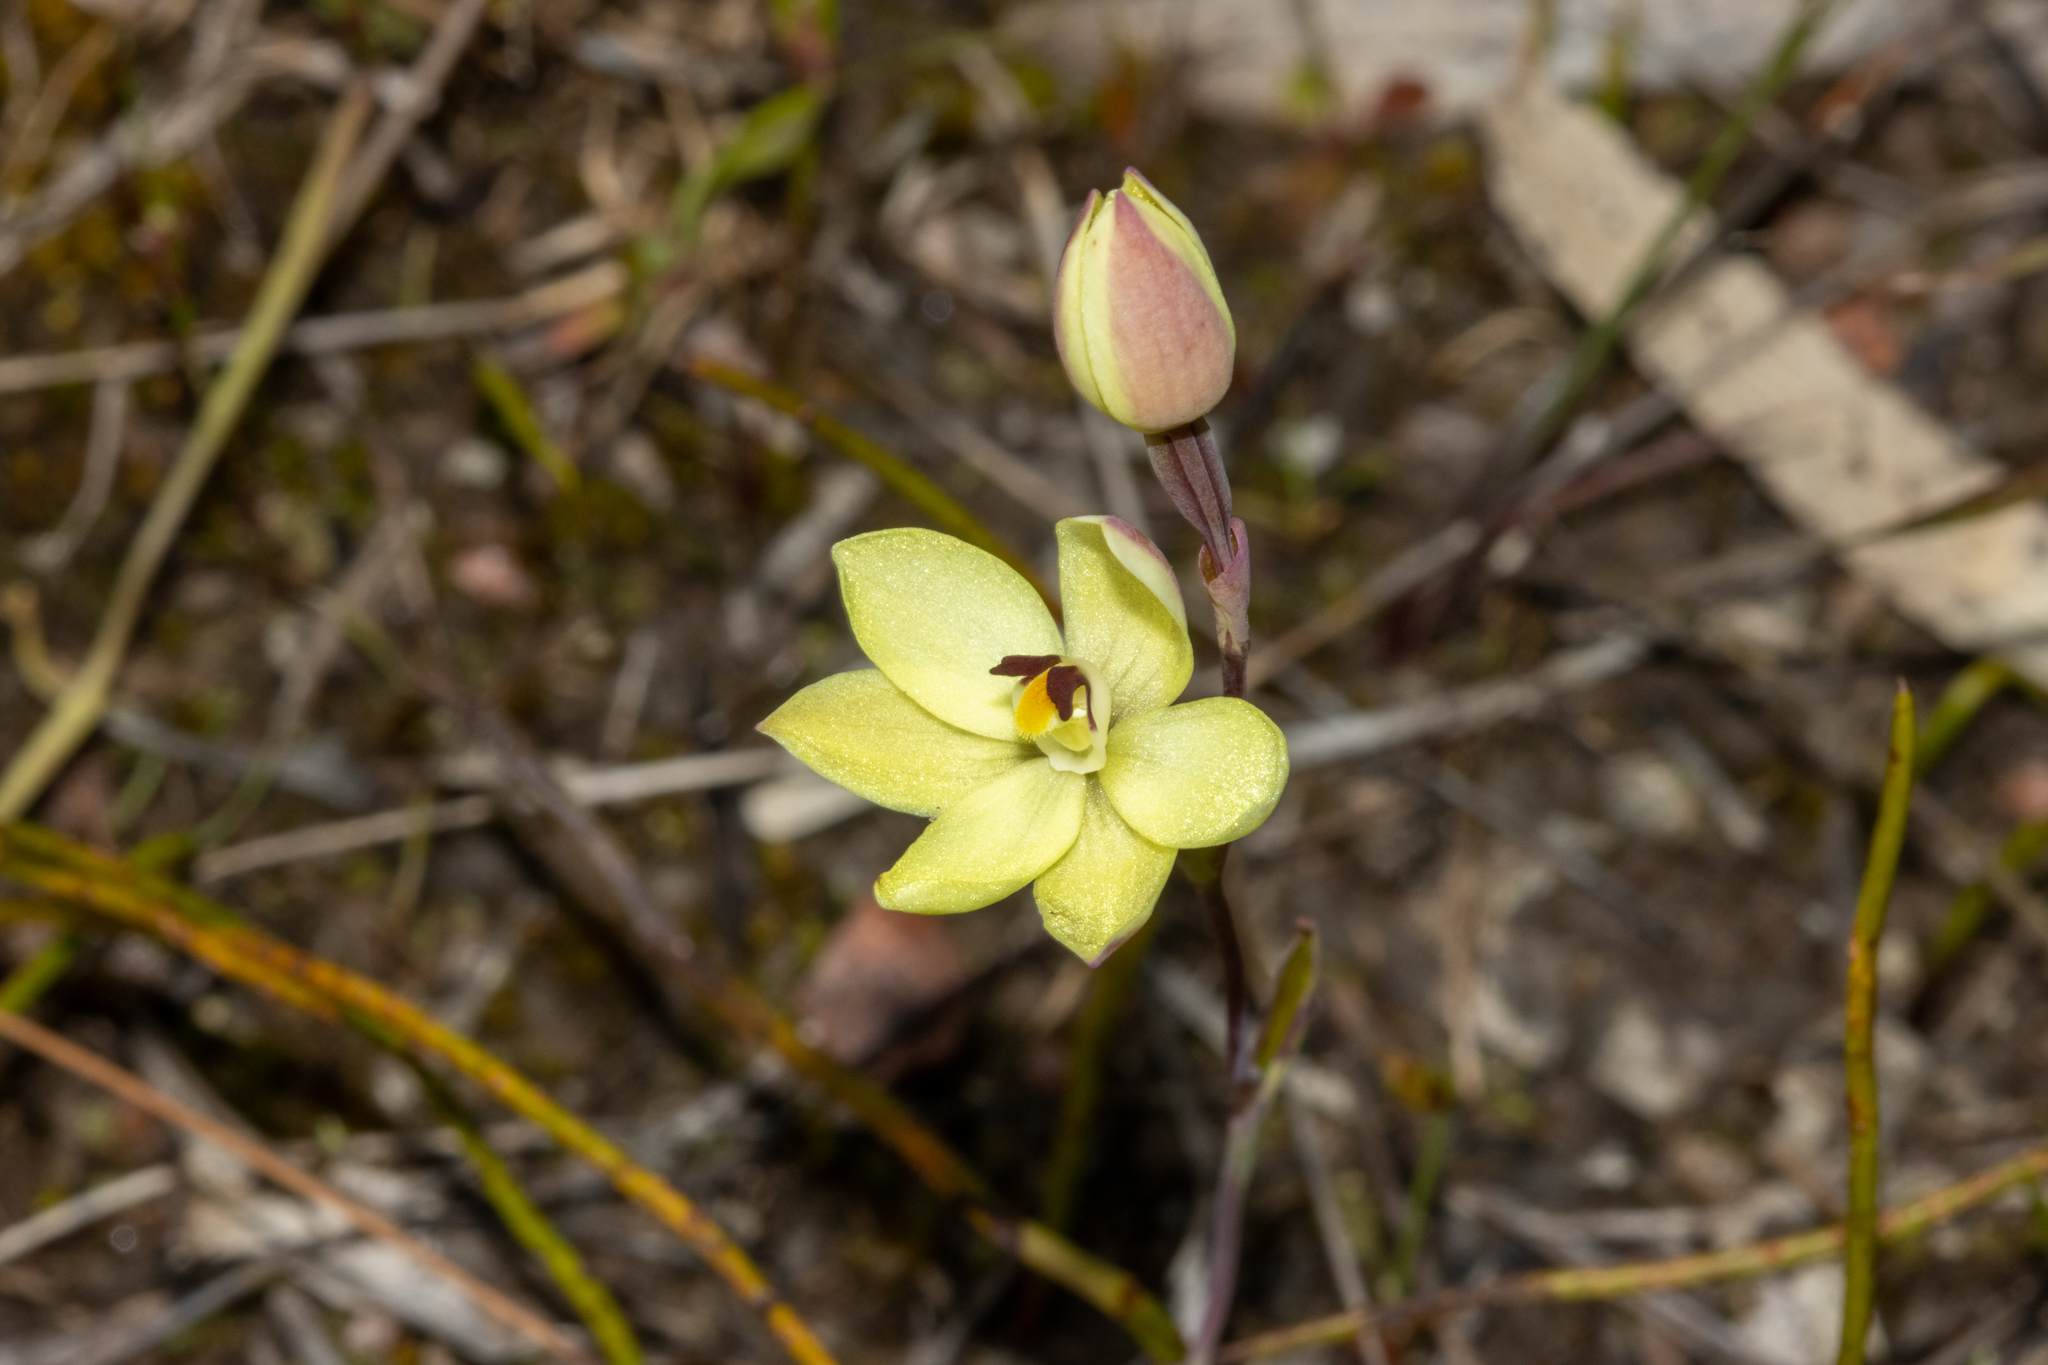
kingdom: Plantae
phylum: Tracheophyta
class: Liliopsida
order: Asparagales
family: Orchidaceae
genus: Thelymitra
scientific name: Thelymitra antennifera
